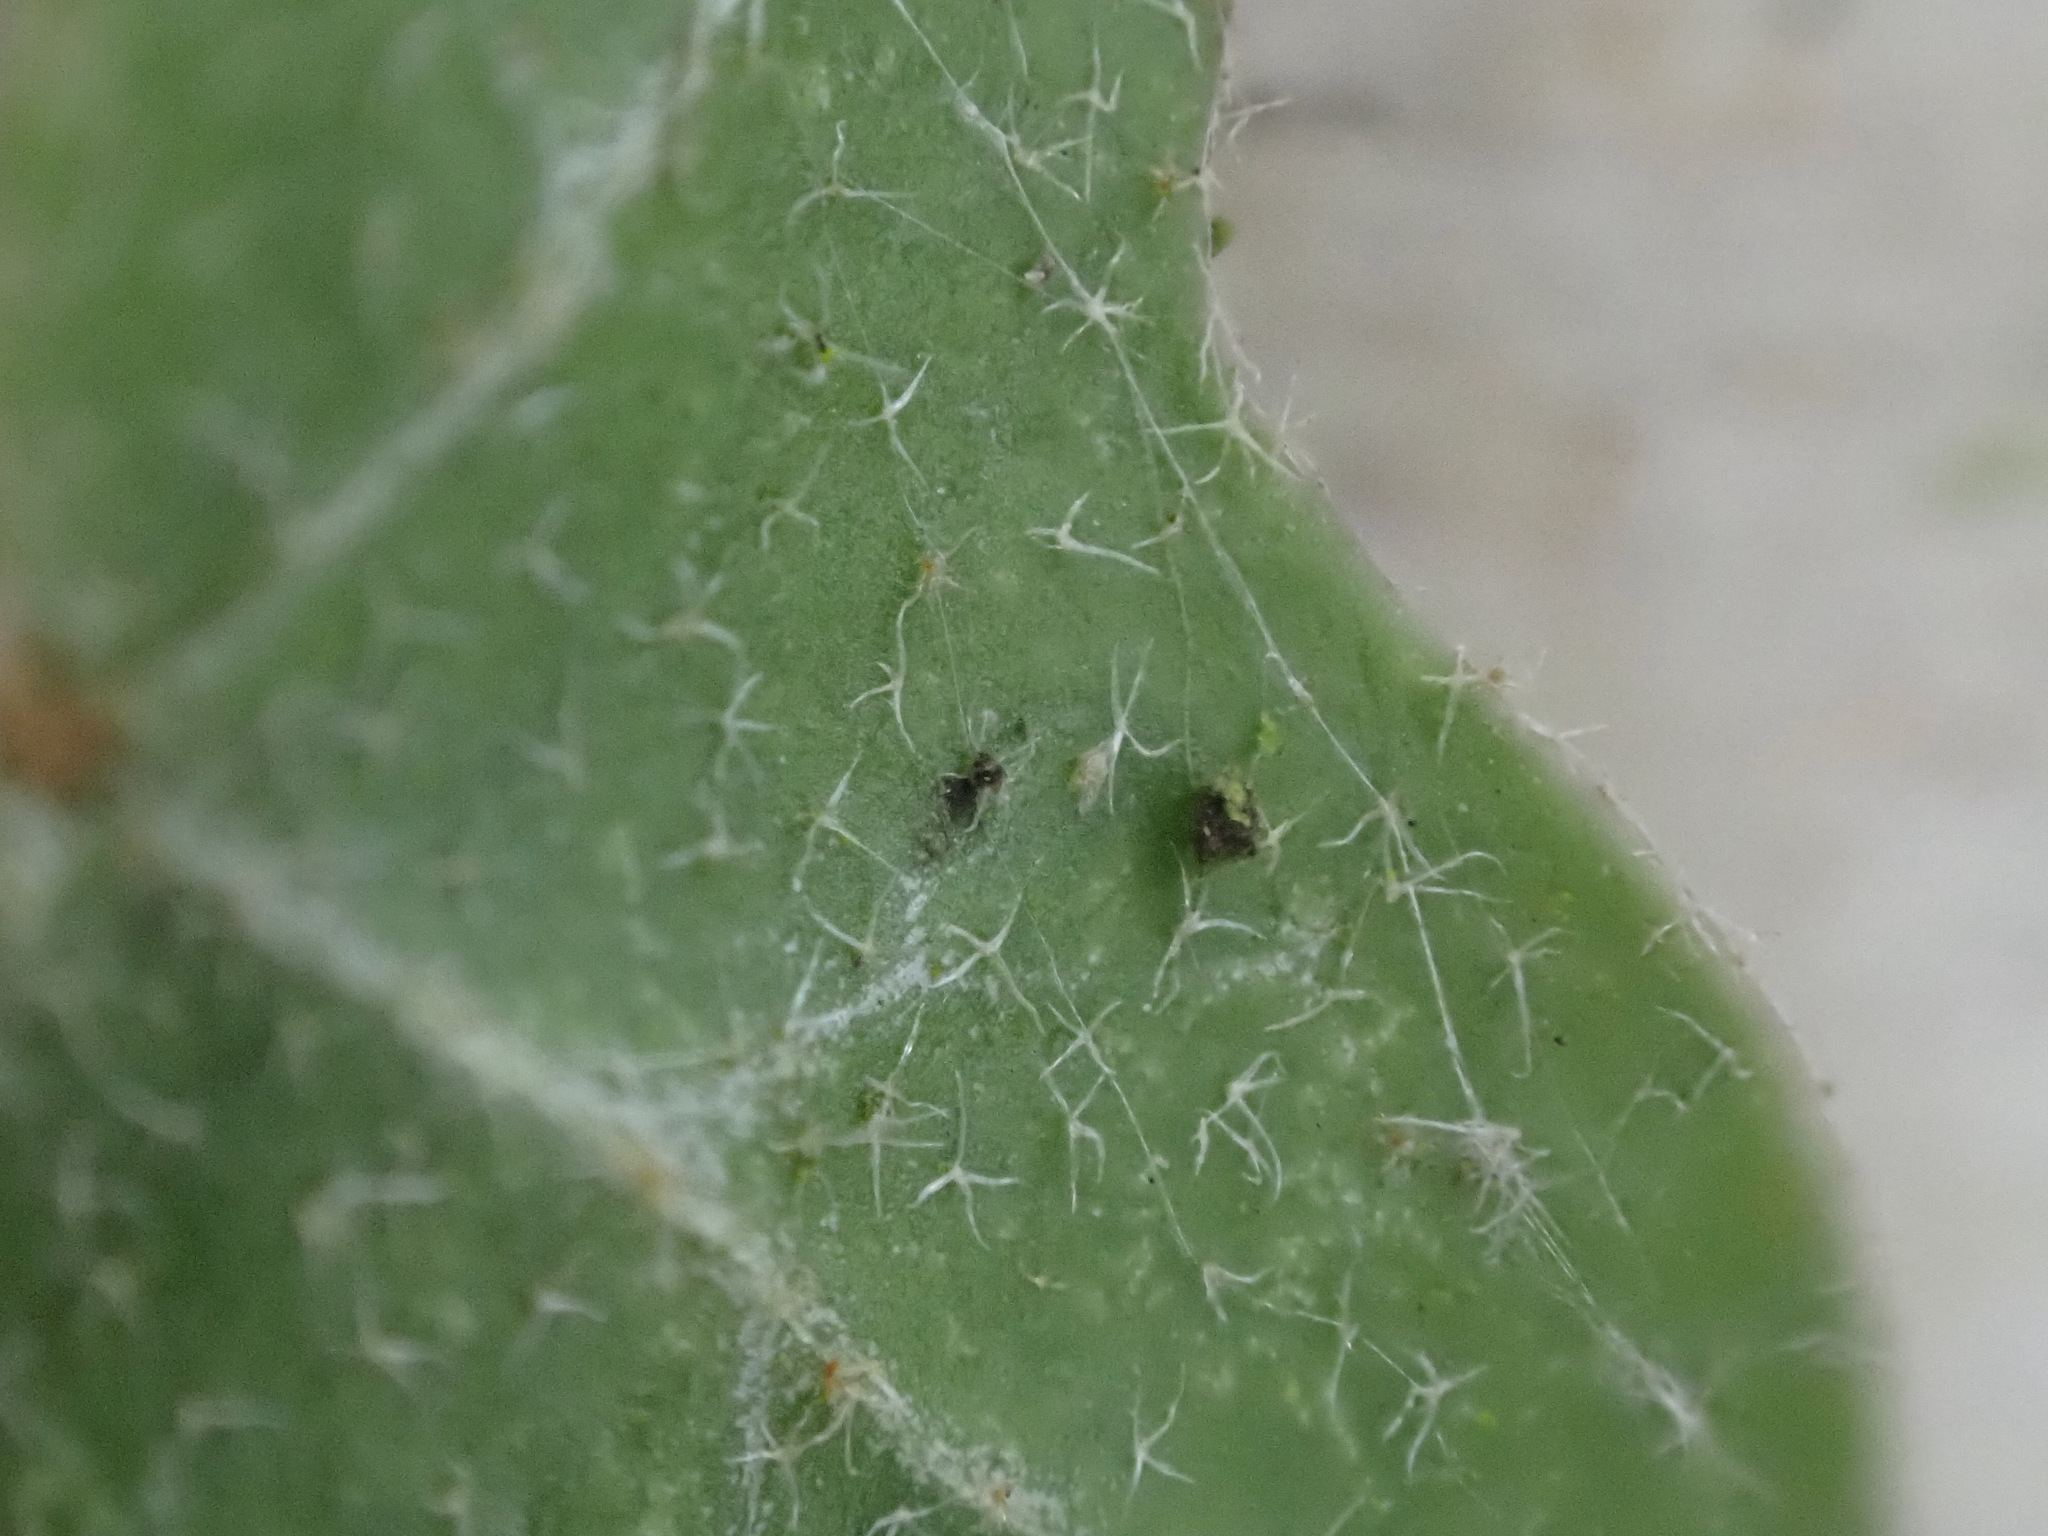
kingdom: Plantae
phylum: Tracheophyta
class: Magnoliopsida
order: Apiales
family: Araliaceae
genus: Hedera
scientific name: Hedera helix
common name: Ivy
